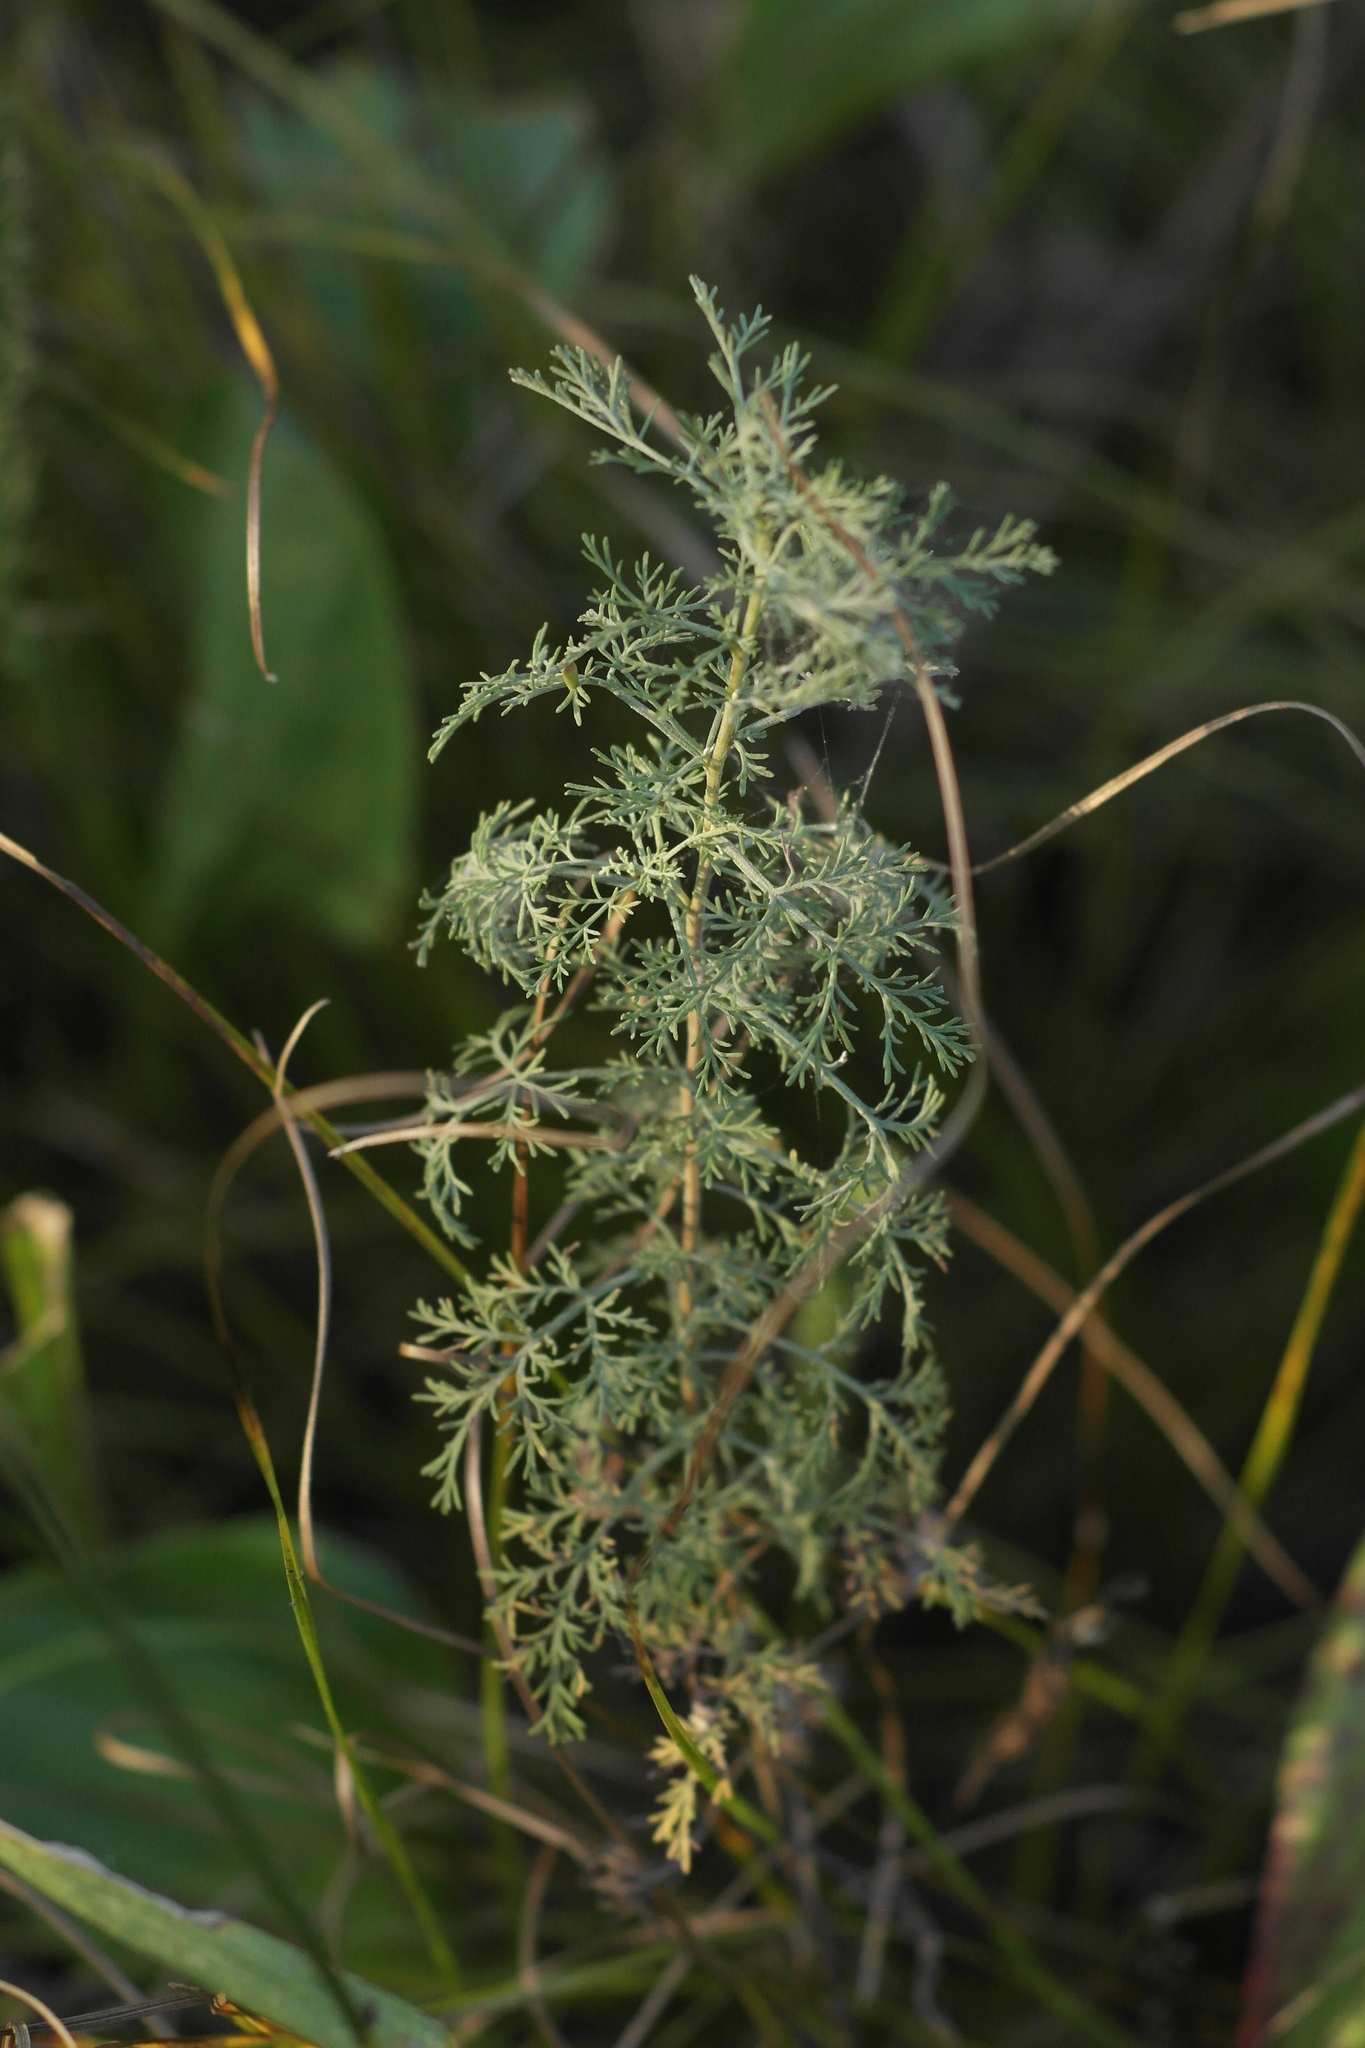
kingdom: Plantae
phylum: Tracheophyta
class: Magnoliopsida
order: Asterales
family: Asteraceae
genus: Artemisia
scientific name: Artemisia abrotanum
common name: Southernwood
